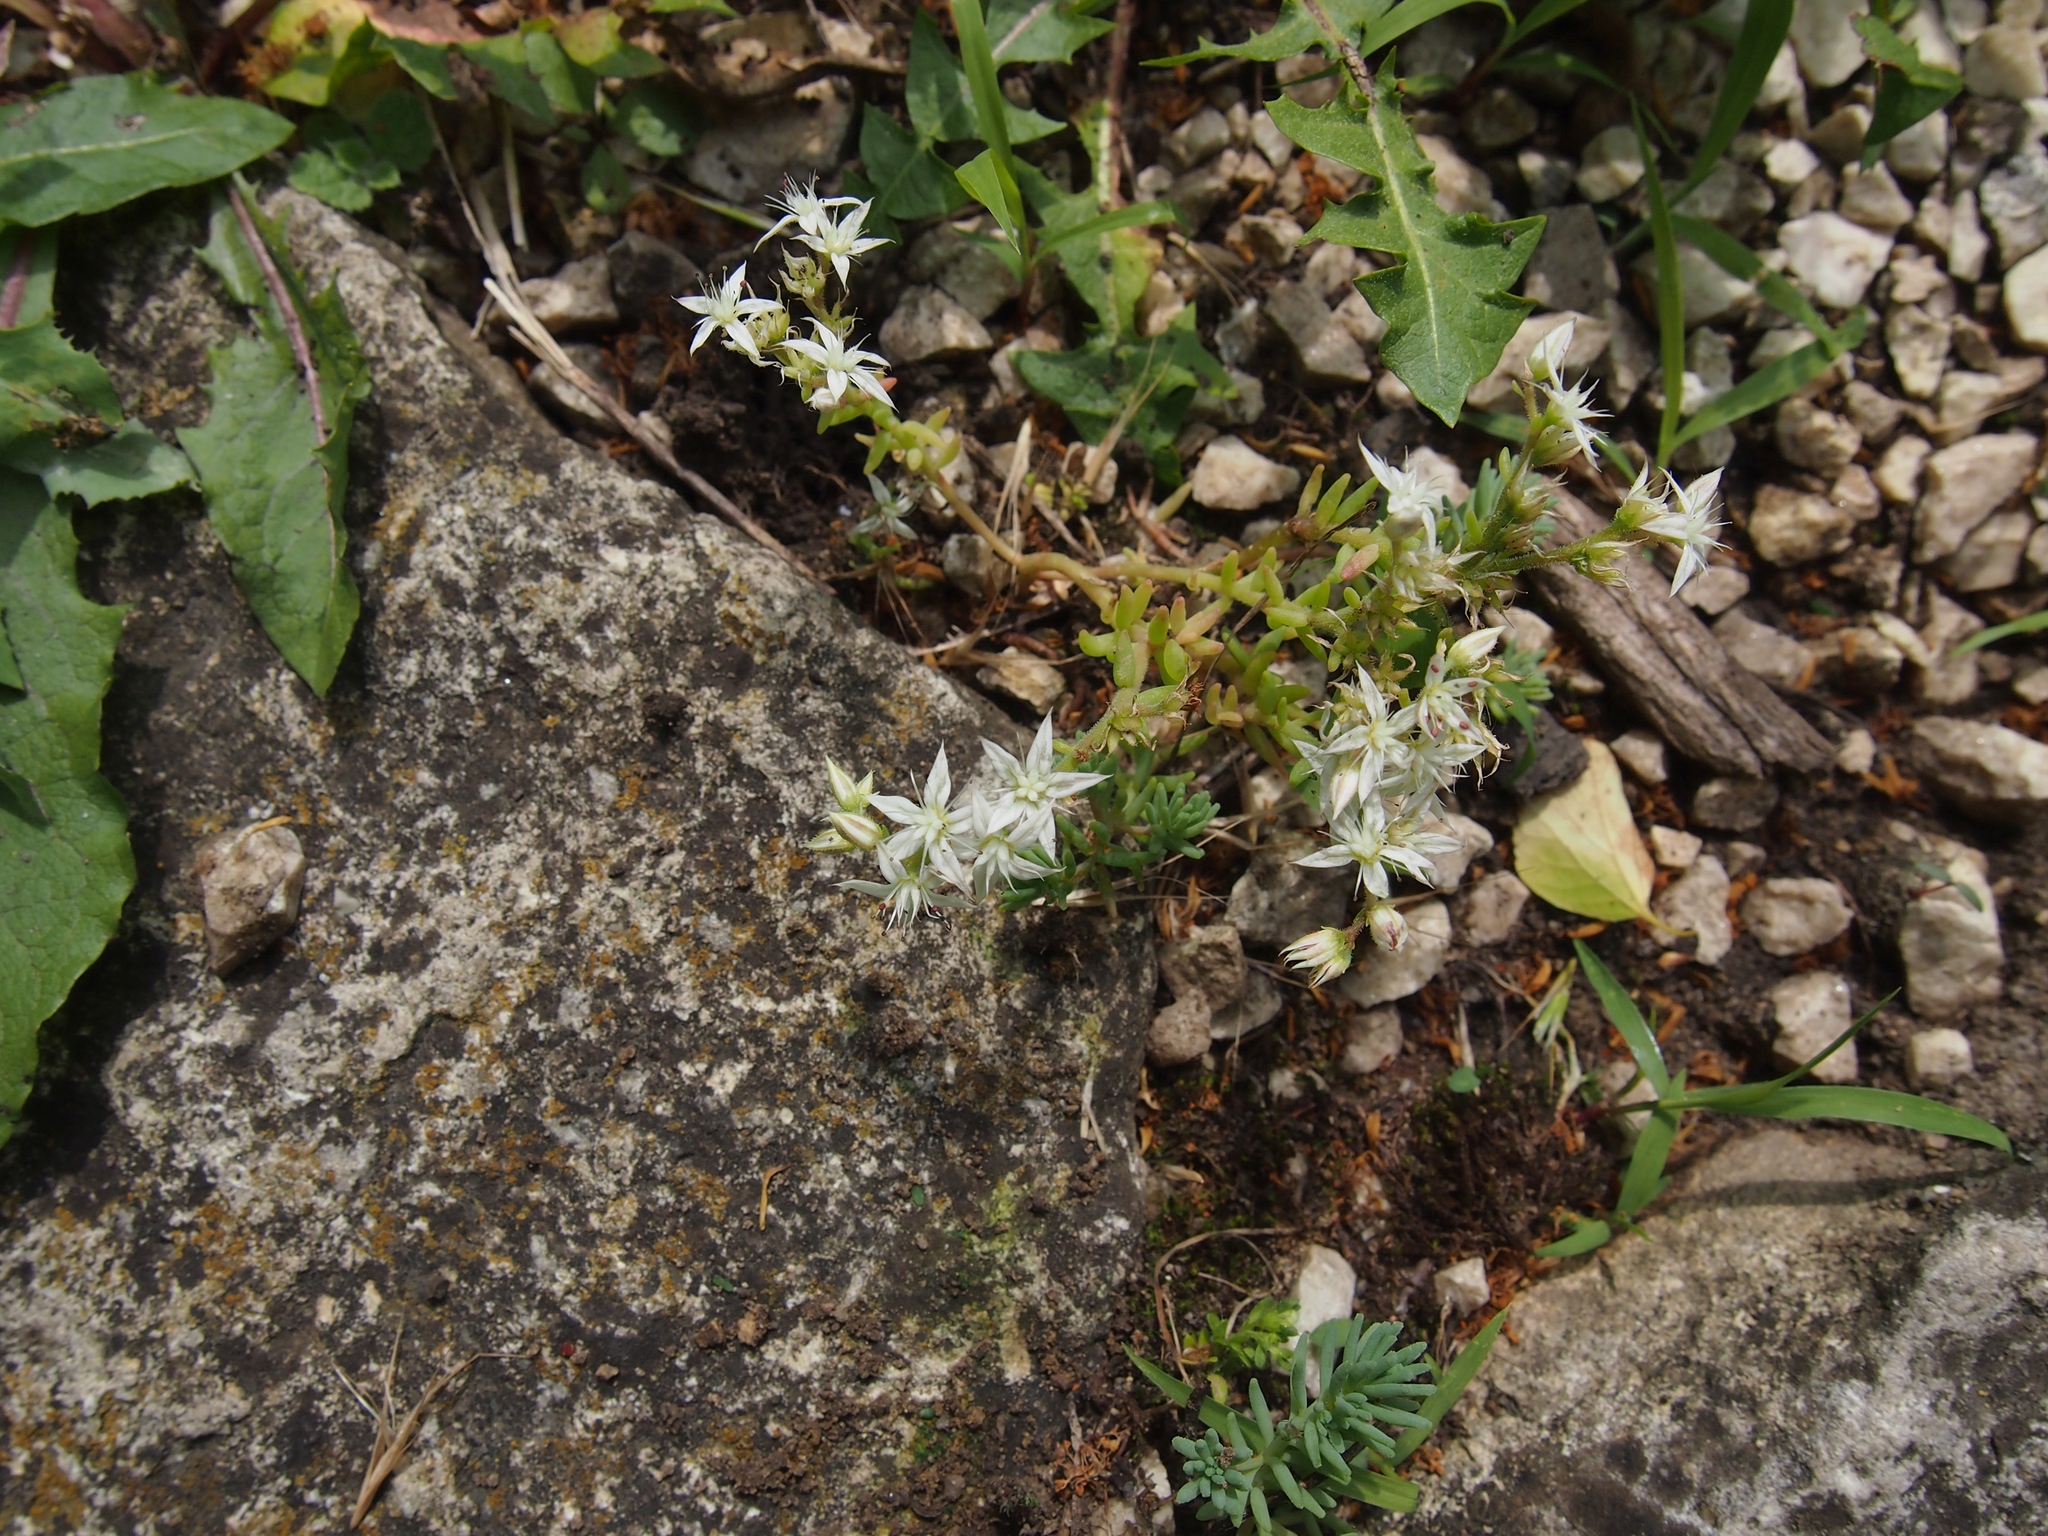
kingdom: Plantae
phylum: Tracheophyta
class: Magnoliopsida
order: Saxifragales
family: Crassulaceae
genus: Sedum
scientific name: Sedum album
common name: White stonecrop
